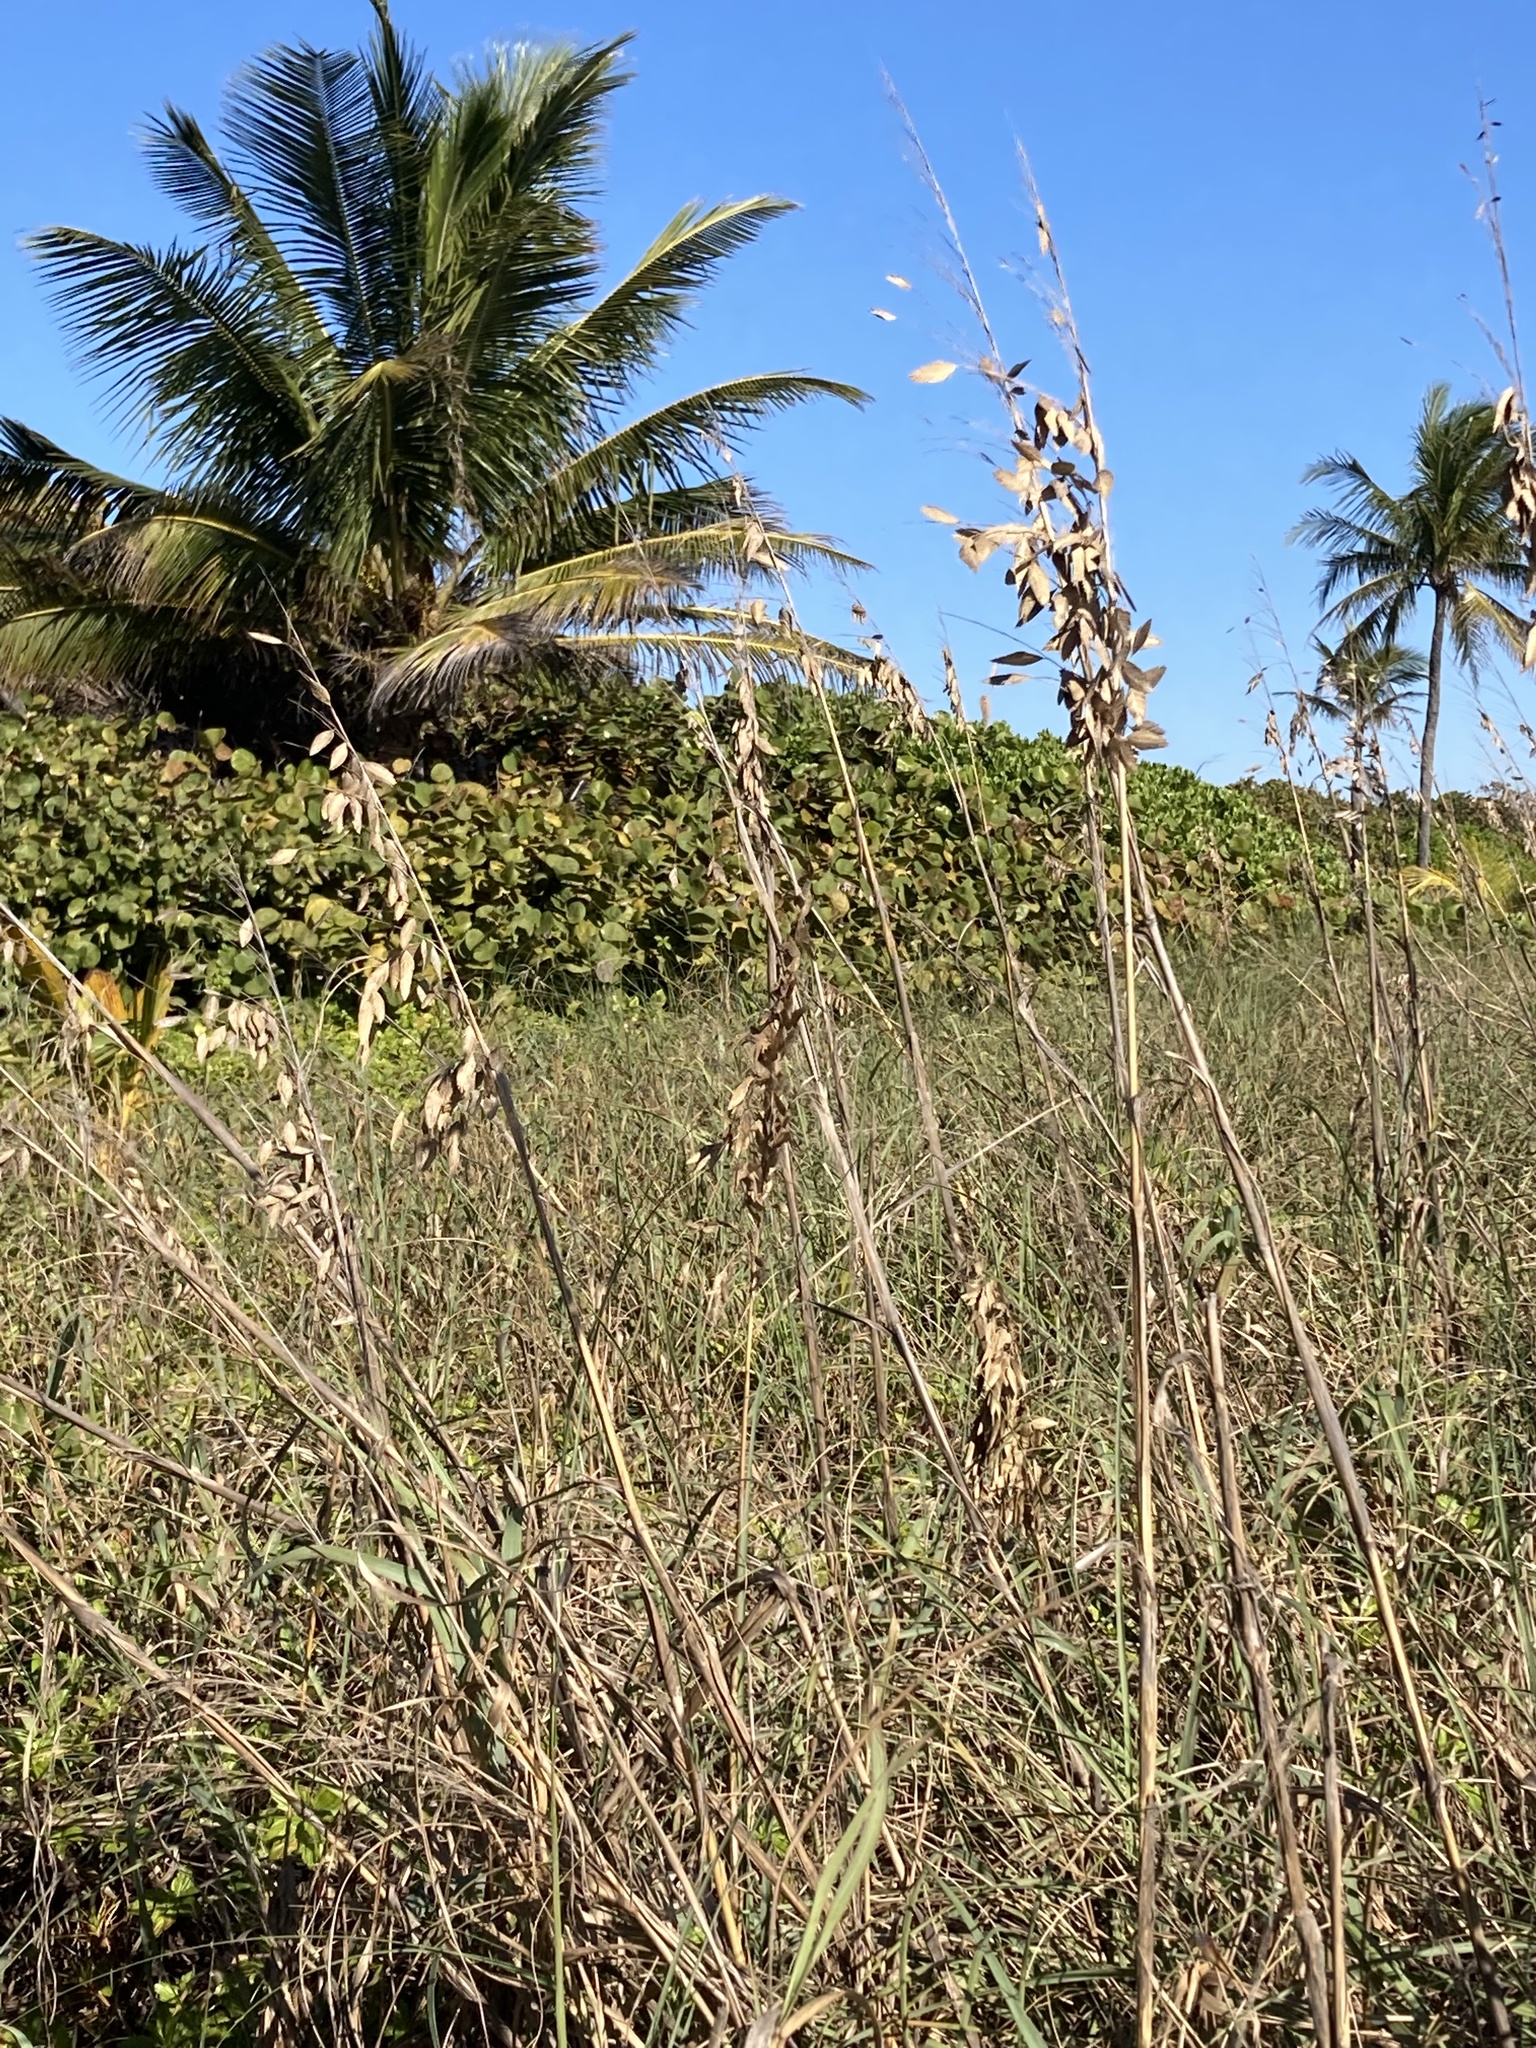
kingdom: Plantae
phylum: Tracheophyta
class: Liliopsida
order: Poales
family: Poaceae
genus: Uniola
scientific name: Uniola paniculata
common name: Seaside-oats
